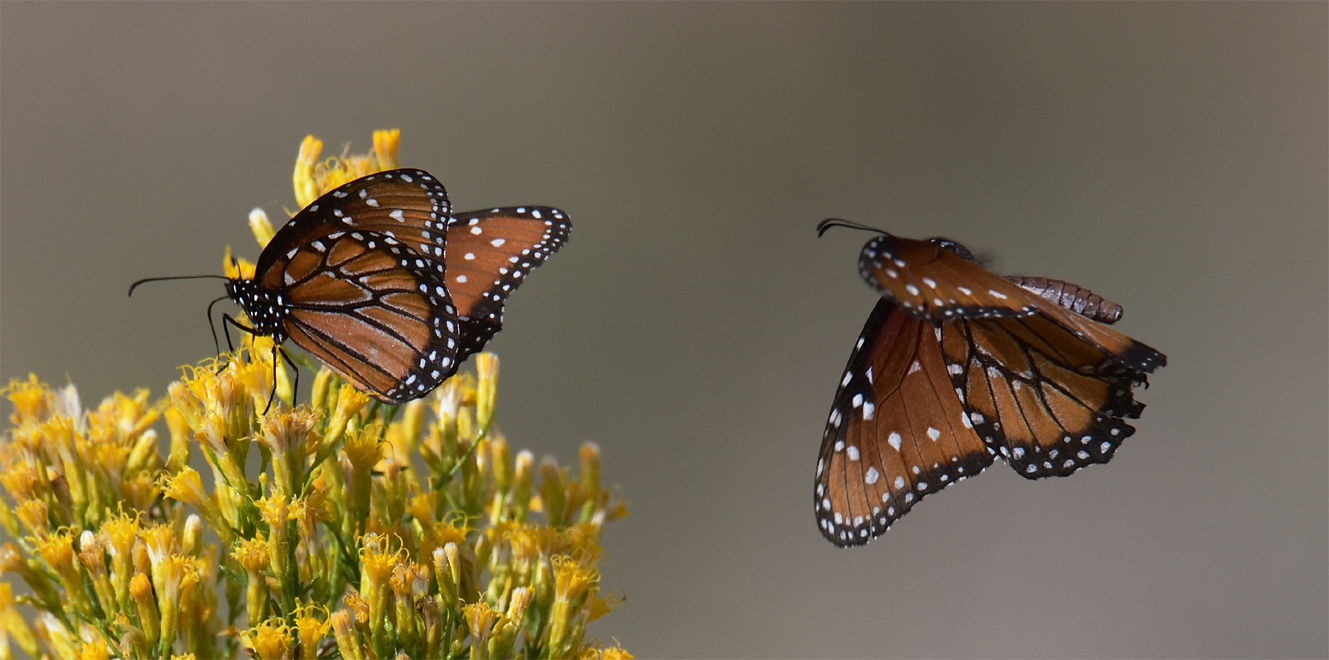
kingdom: Animalia
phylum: Arthropoda
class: Insecta
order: Lepidoptera
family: Nymphalidae
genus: Danaus
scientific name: Danaus gilippus
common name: Queen
